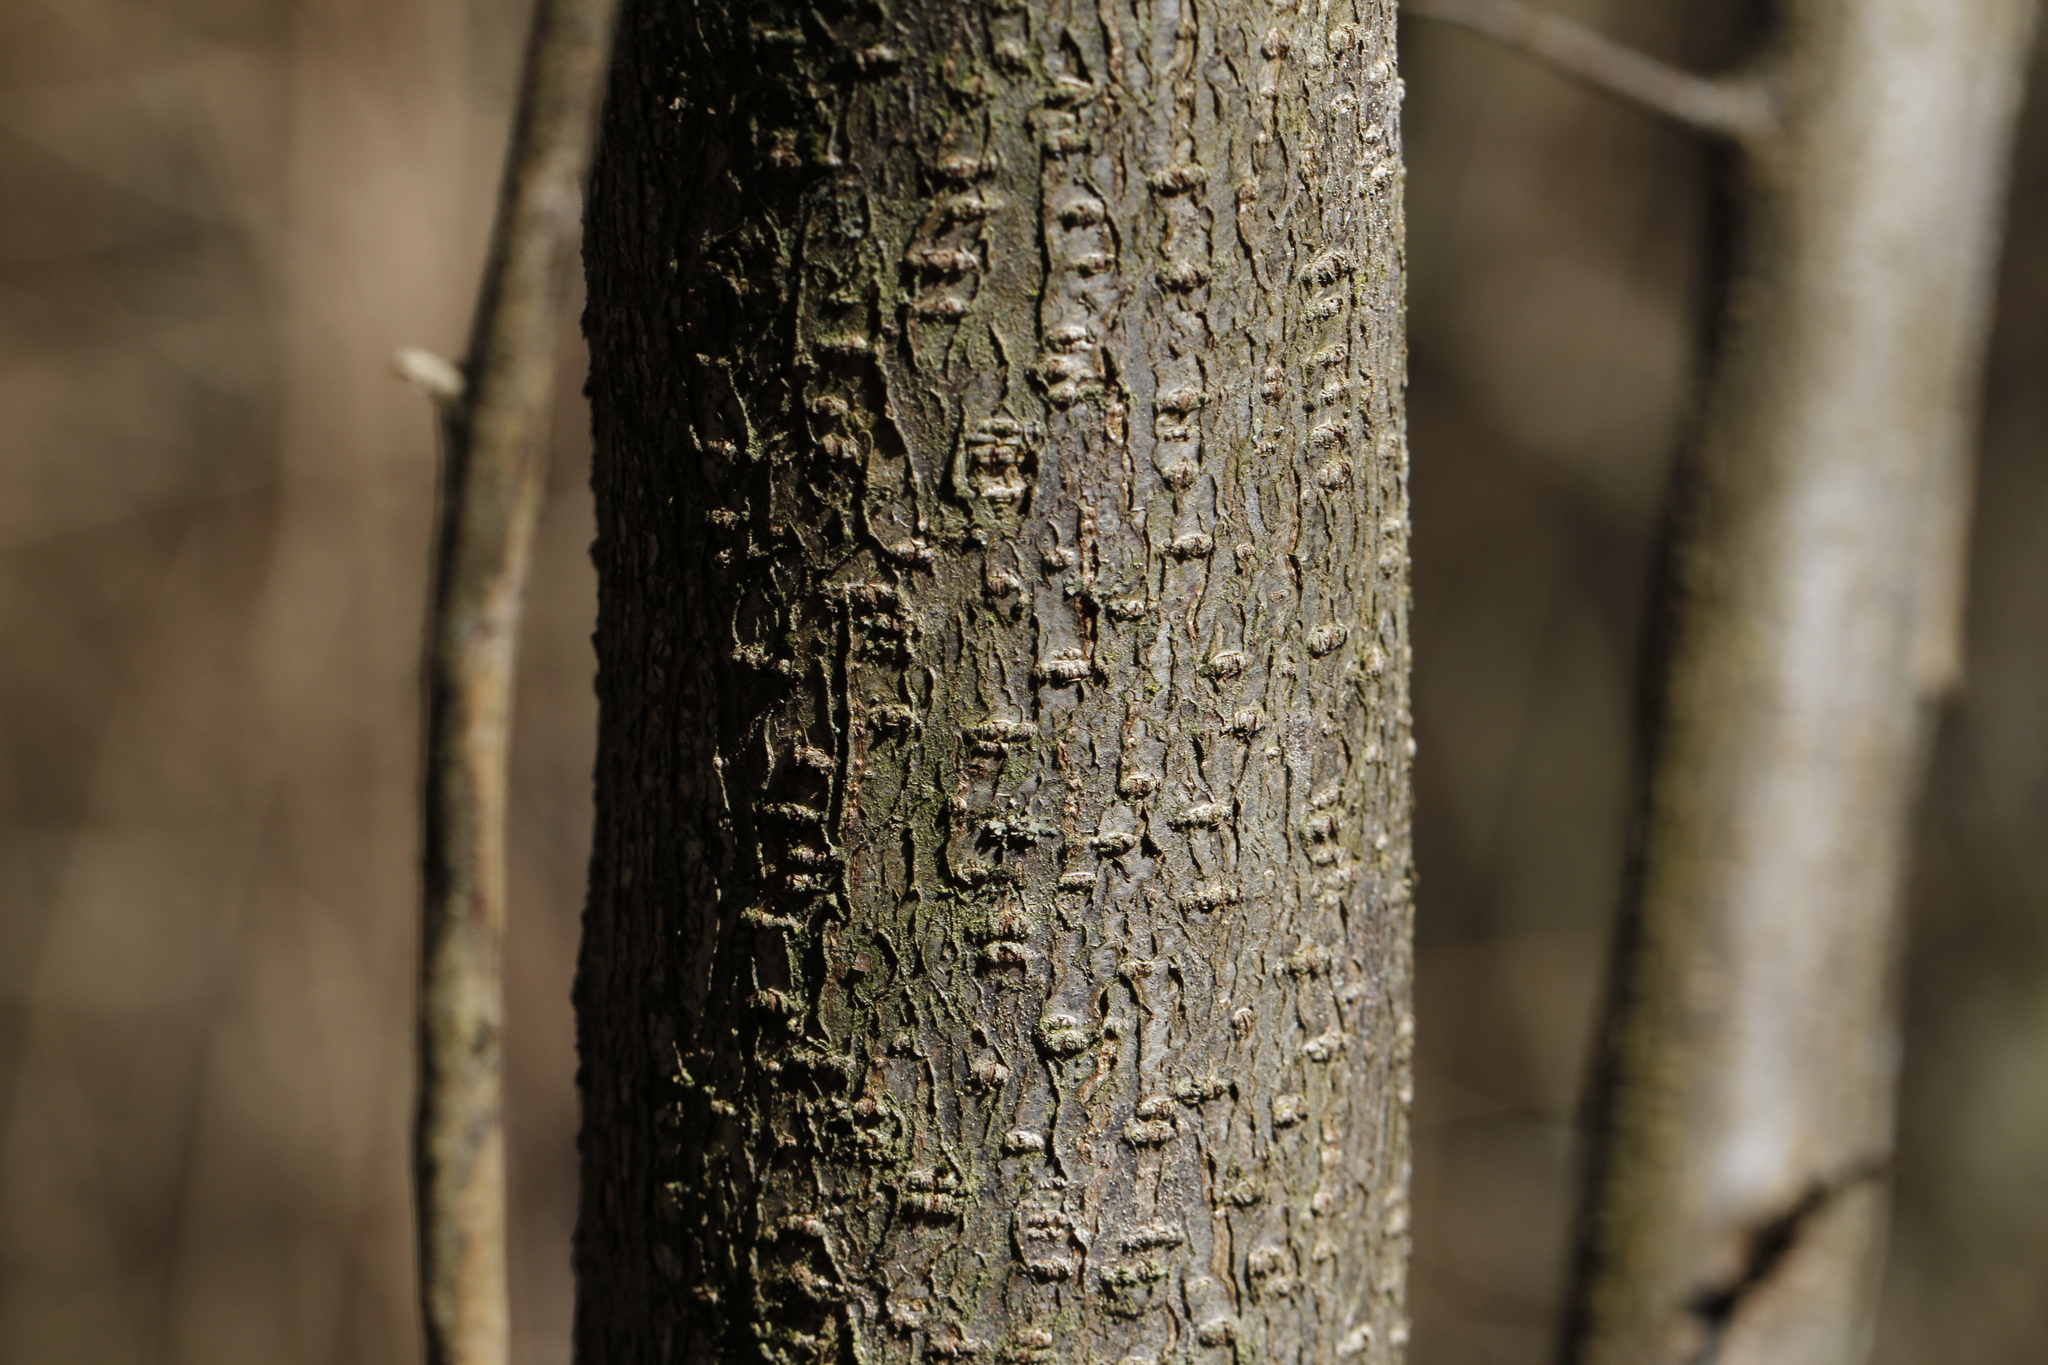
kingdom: Plantae
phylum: Tracheophyta
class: Magnoliopsida
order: Laurales
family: Lauraceae
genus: Lindera
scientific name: Lindera benzoin
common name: Spicebush
